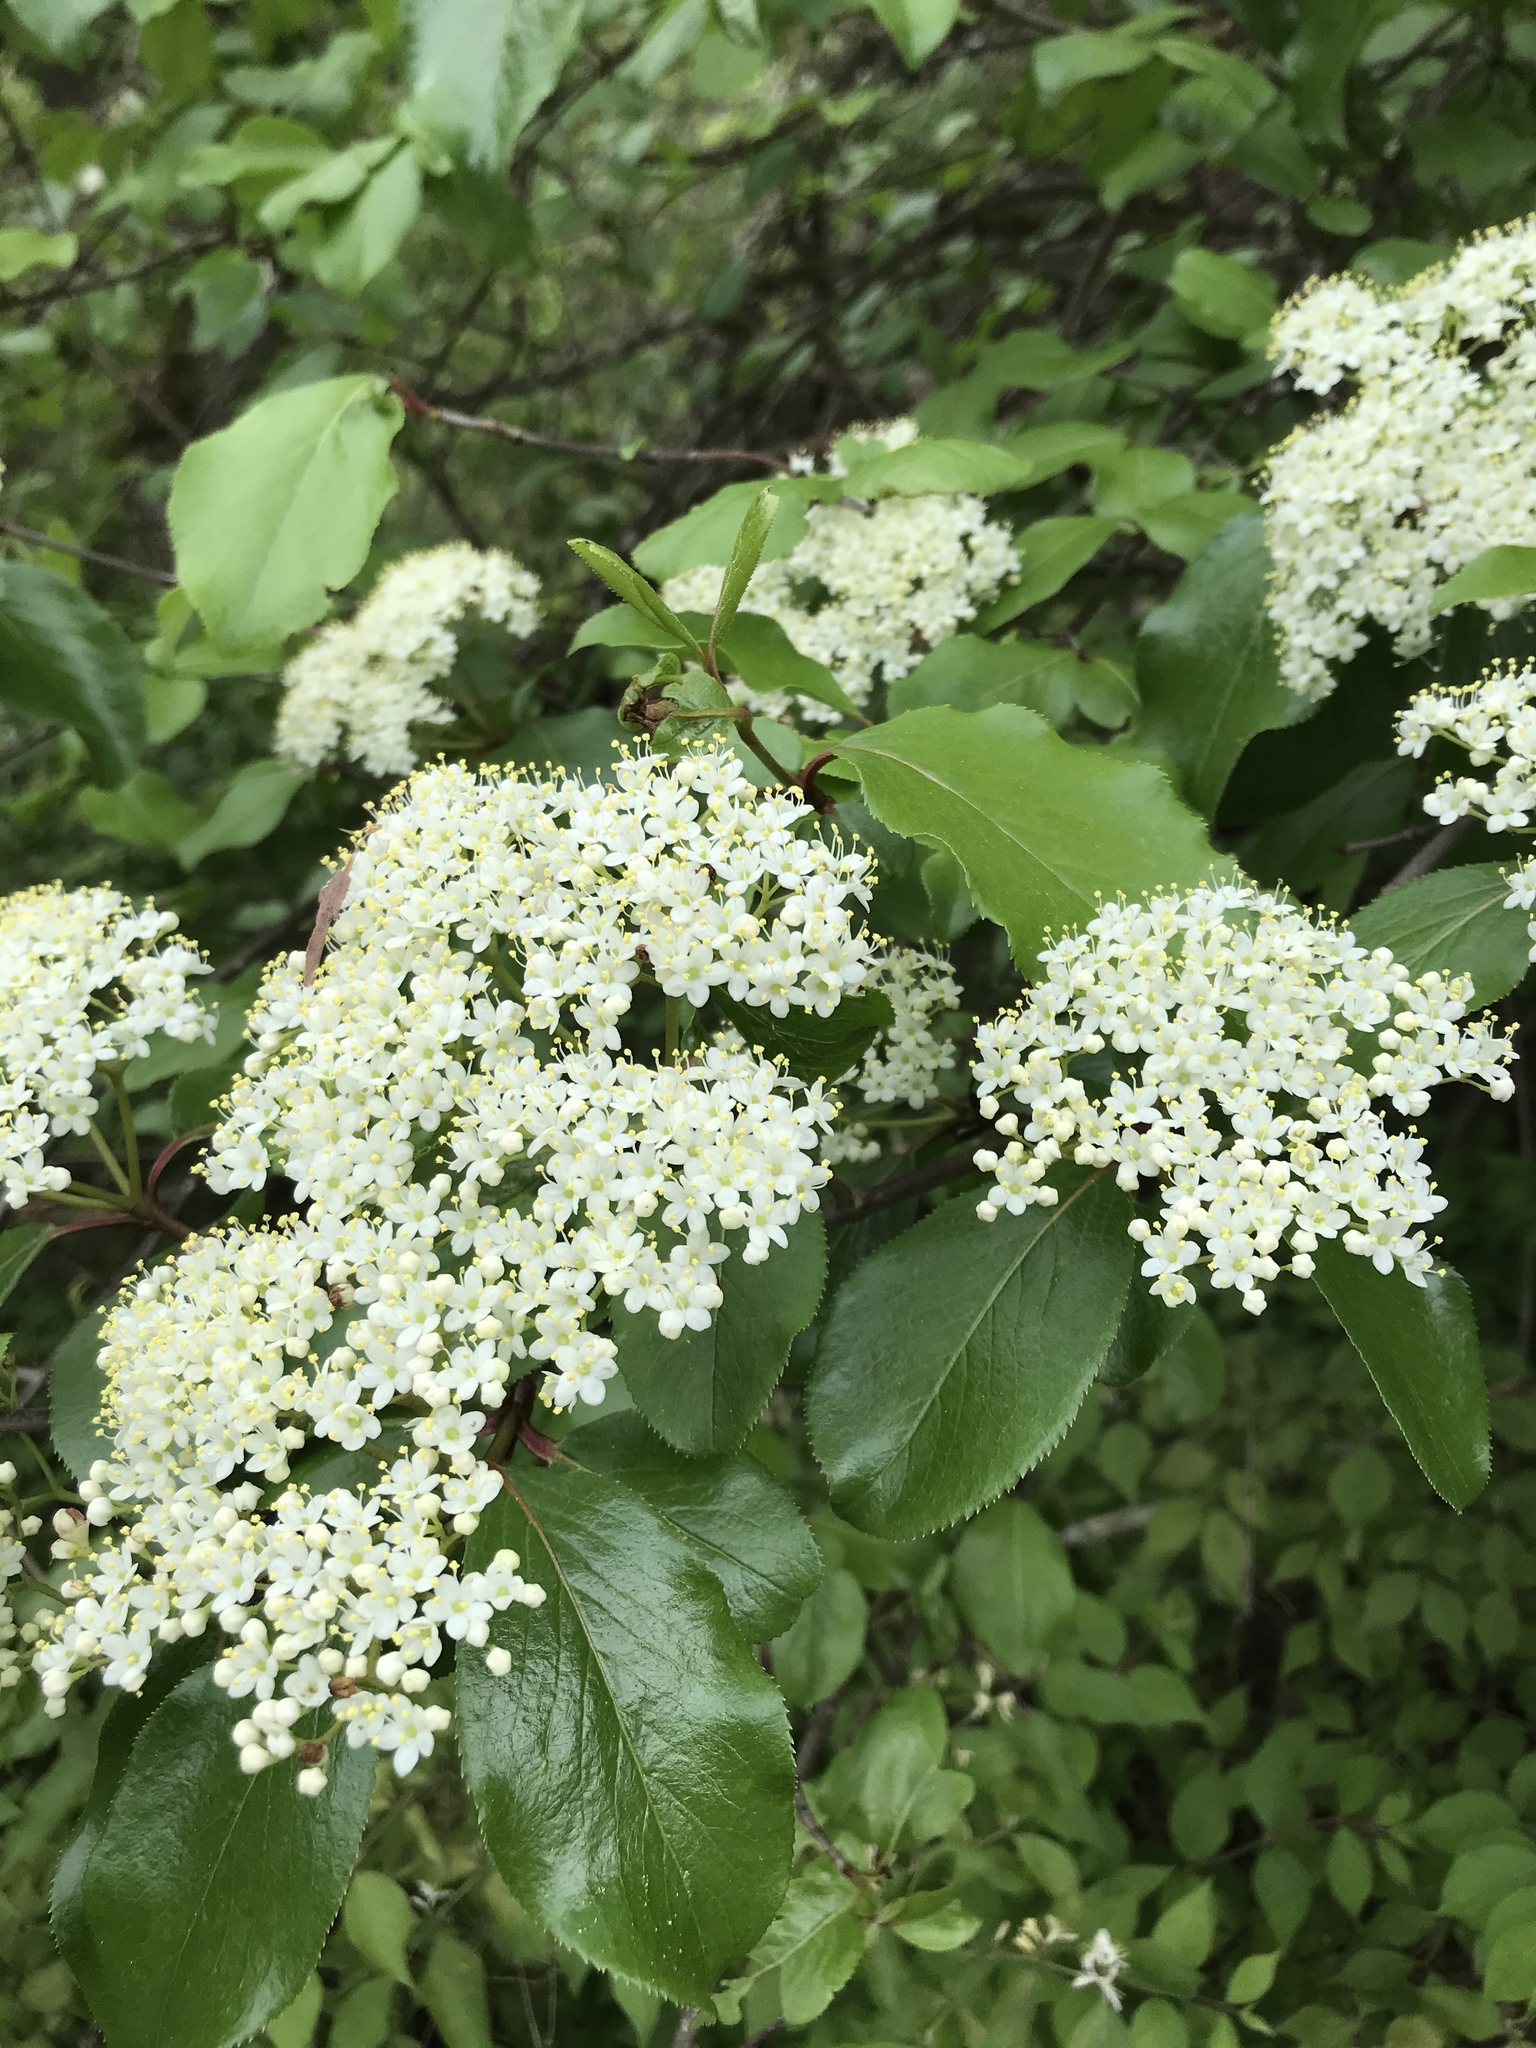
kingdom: Plantae
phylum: Tracheophyta
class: Magnoliopsida
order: Dipsacales
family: Viburnaceae
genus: Viburnum
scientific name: Viburnum rufidulum
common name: Blue haw
